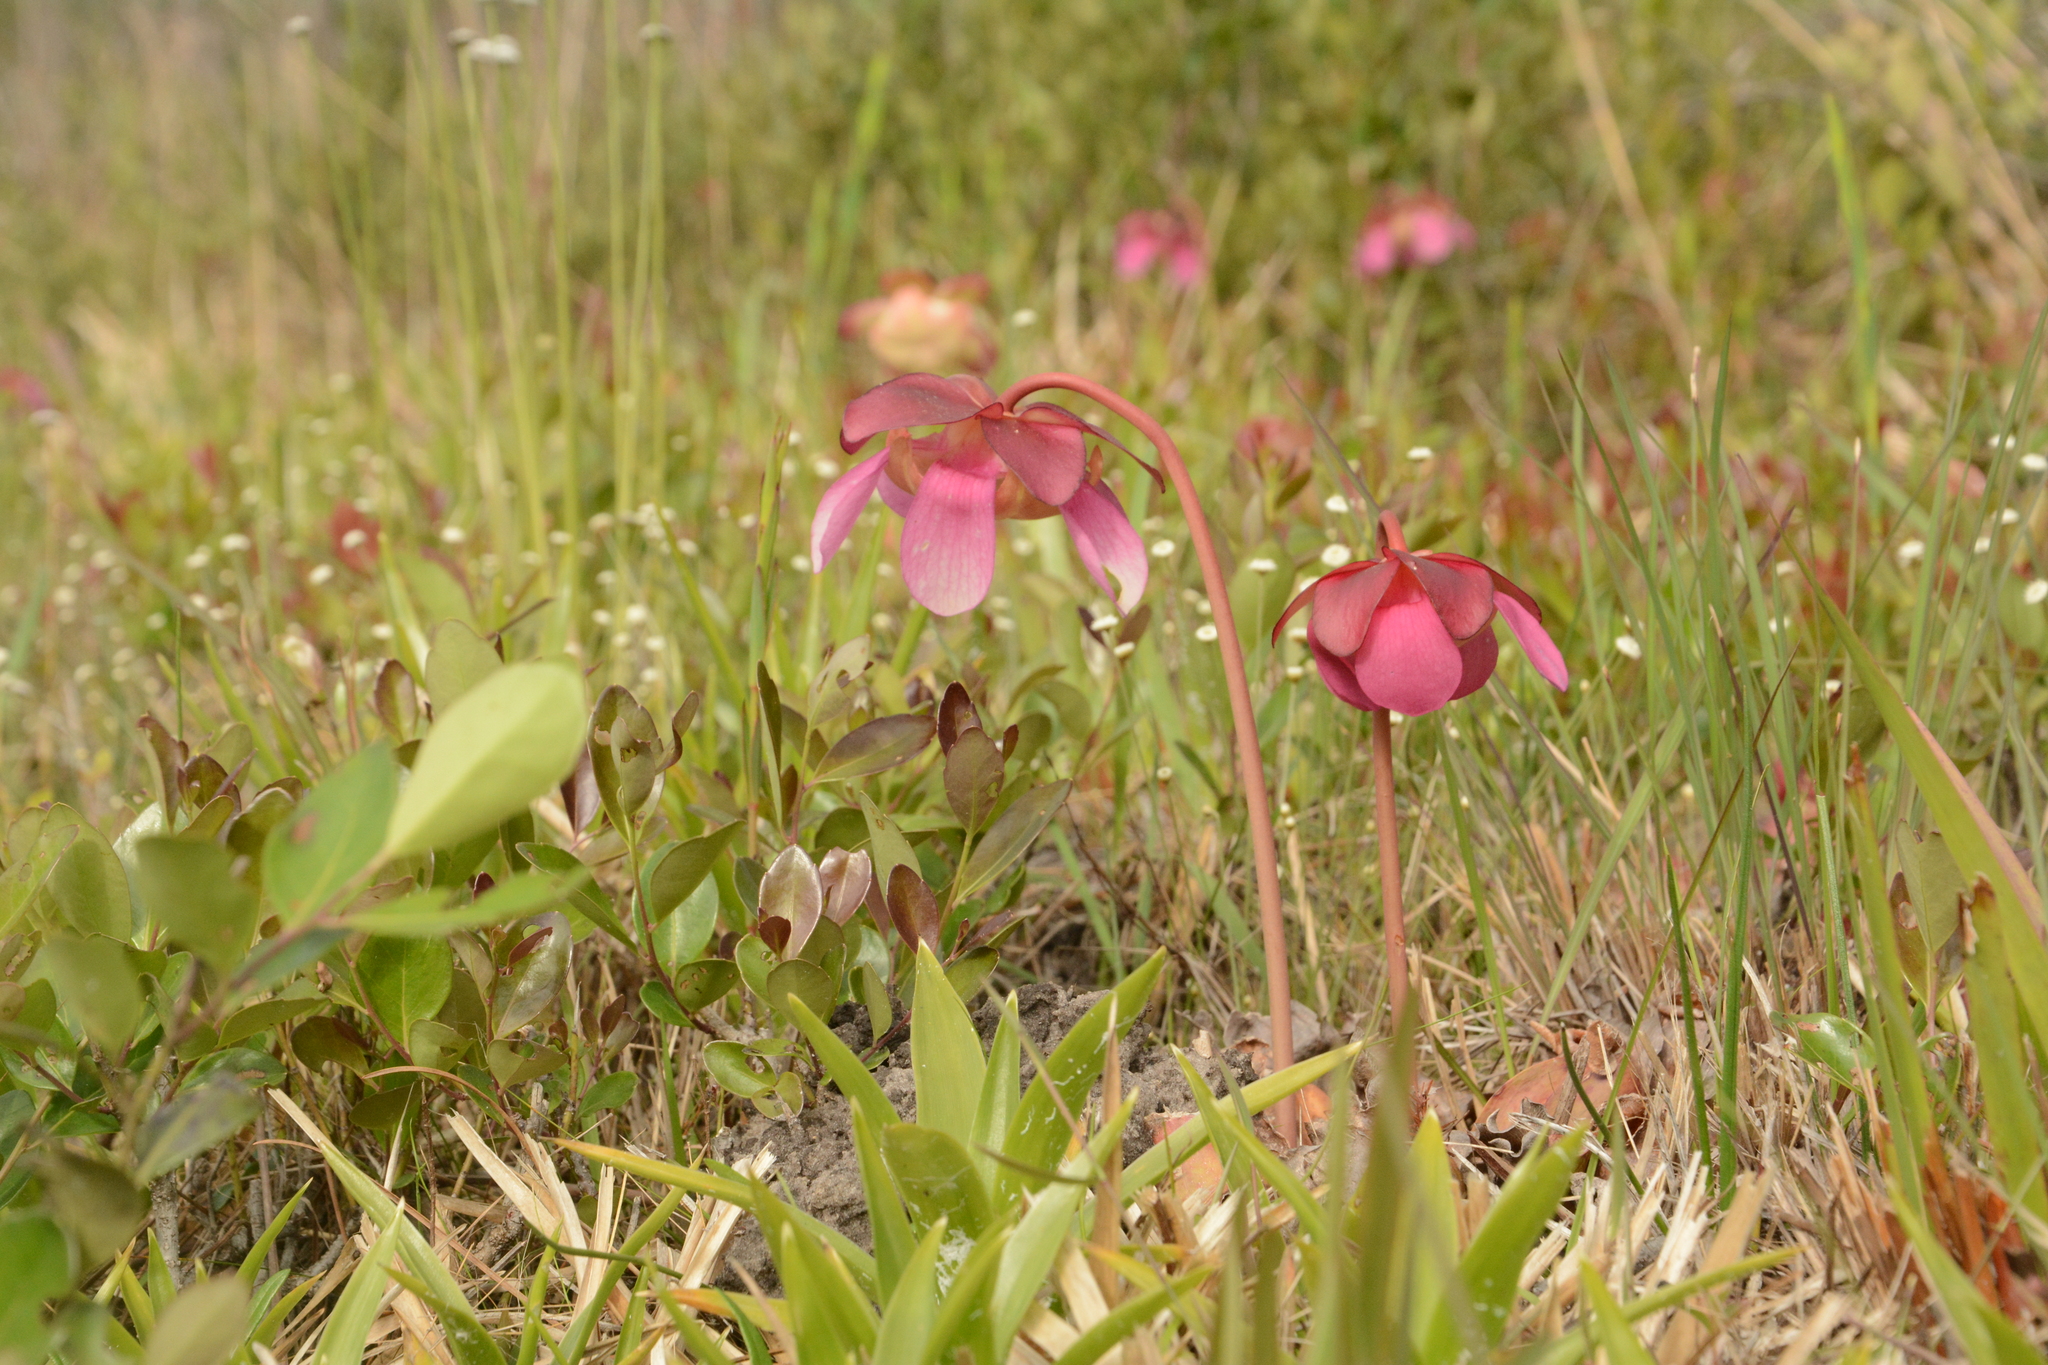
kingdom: Plantae
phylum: Tracheophyta
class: Magnoliopsida
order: Ericales
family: Sarraceniaceae
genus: Sarracenia
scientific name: Sarracenia rosea
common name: Pink pitcherplant
